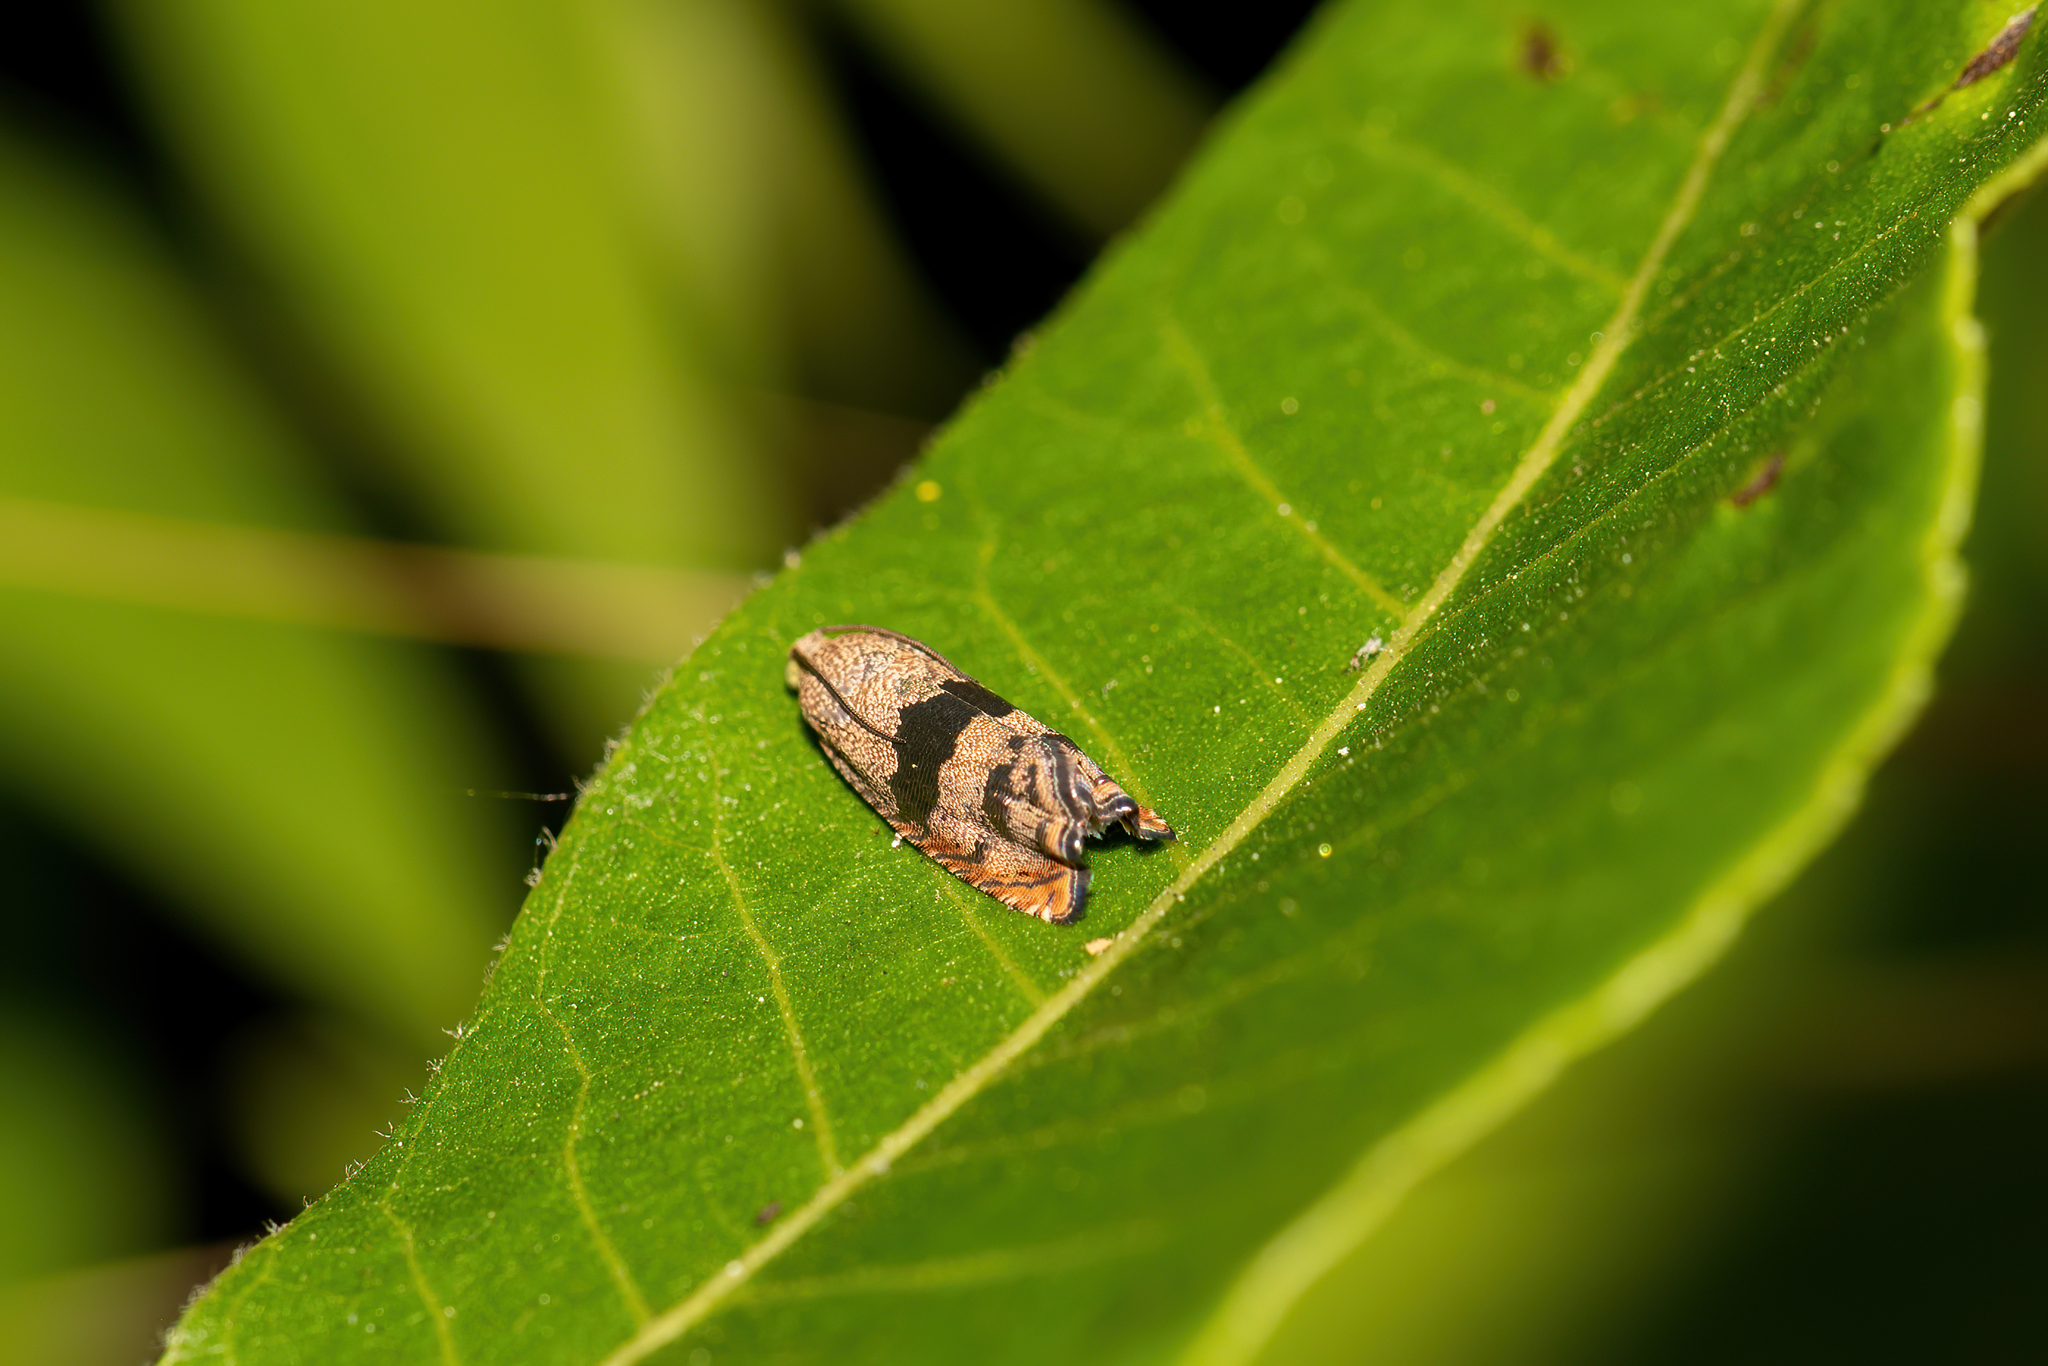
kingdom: Animalia
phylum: Arthropoda
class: Insecta
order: Lepidoptera
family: Tortricidae
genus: Cydia
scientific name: Cydia latiferreana
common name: Filbertworm moth
